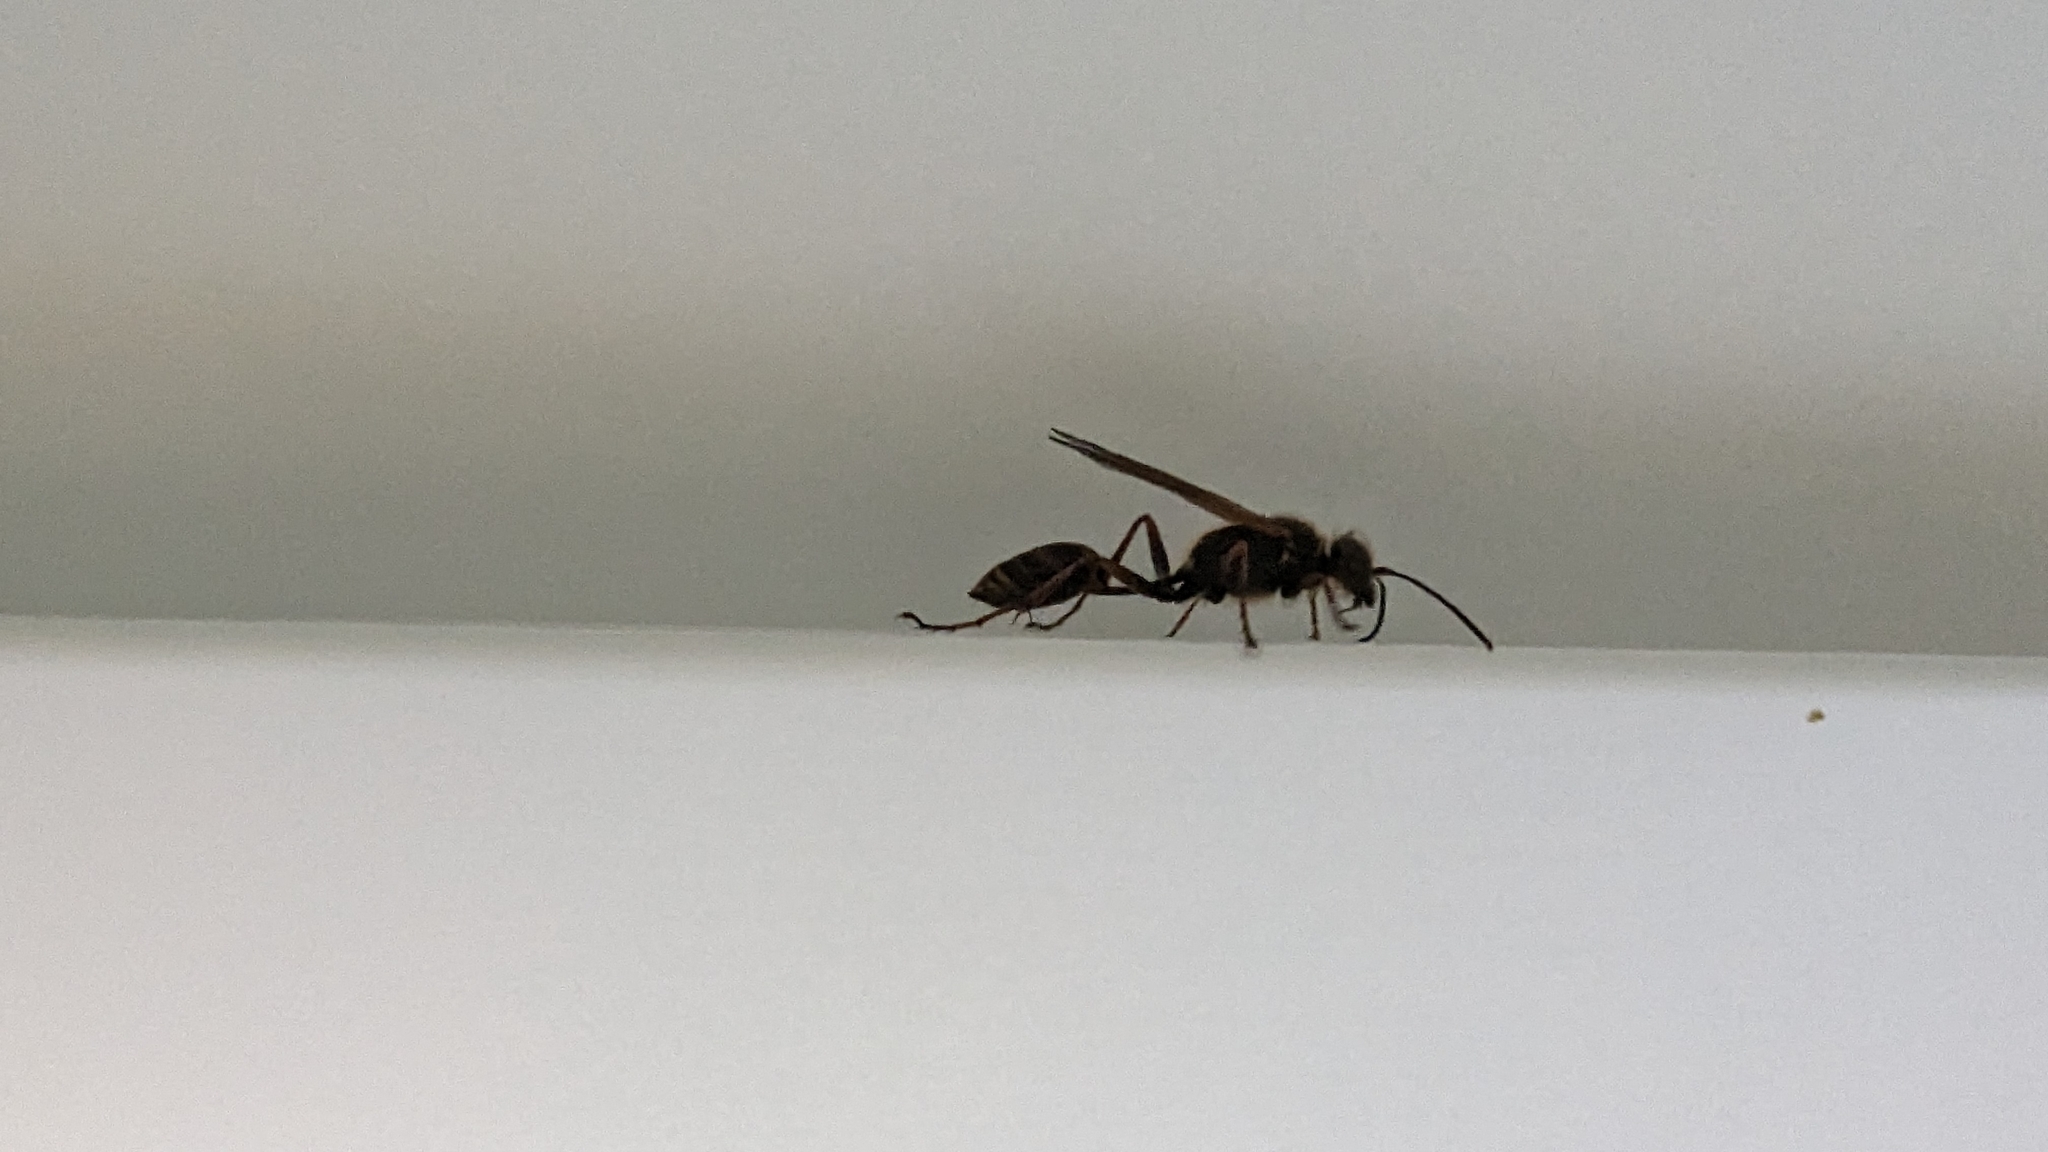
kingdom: Animalia
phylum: Arthropoda
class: Insecta
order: Hymenoptera
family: Sphecidae
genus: Sceliphron
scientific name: Sceliphron curvatum
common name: Pèlopèe
